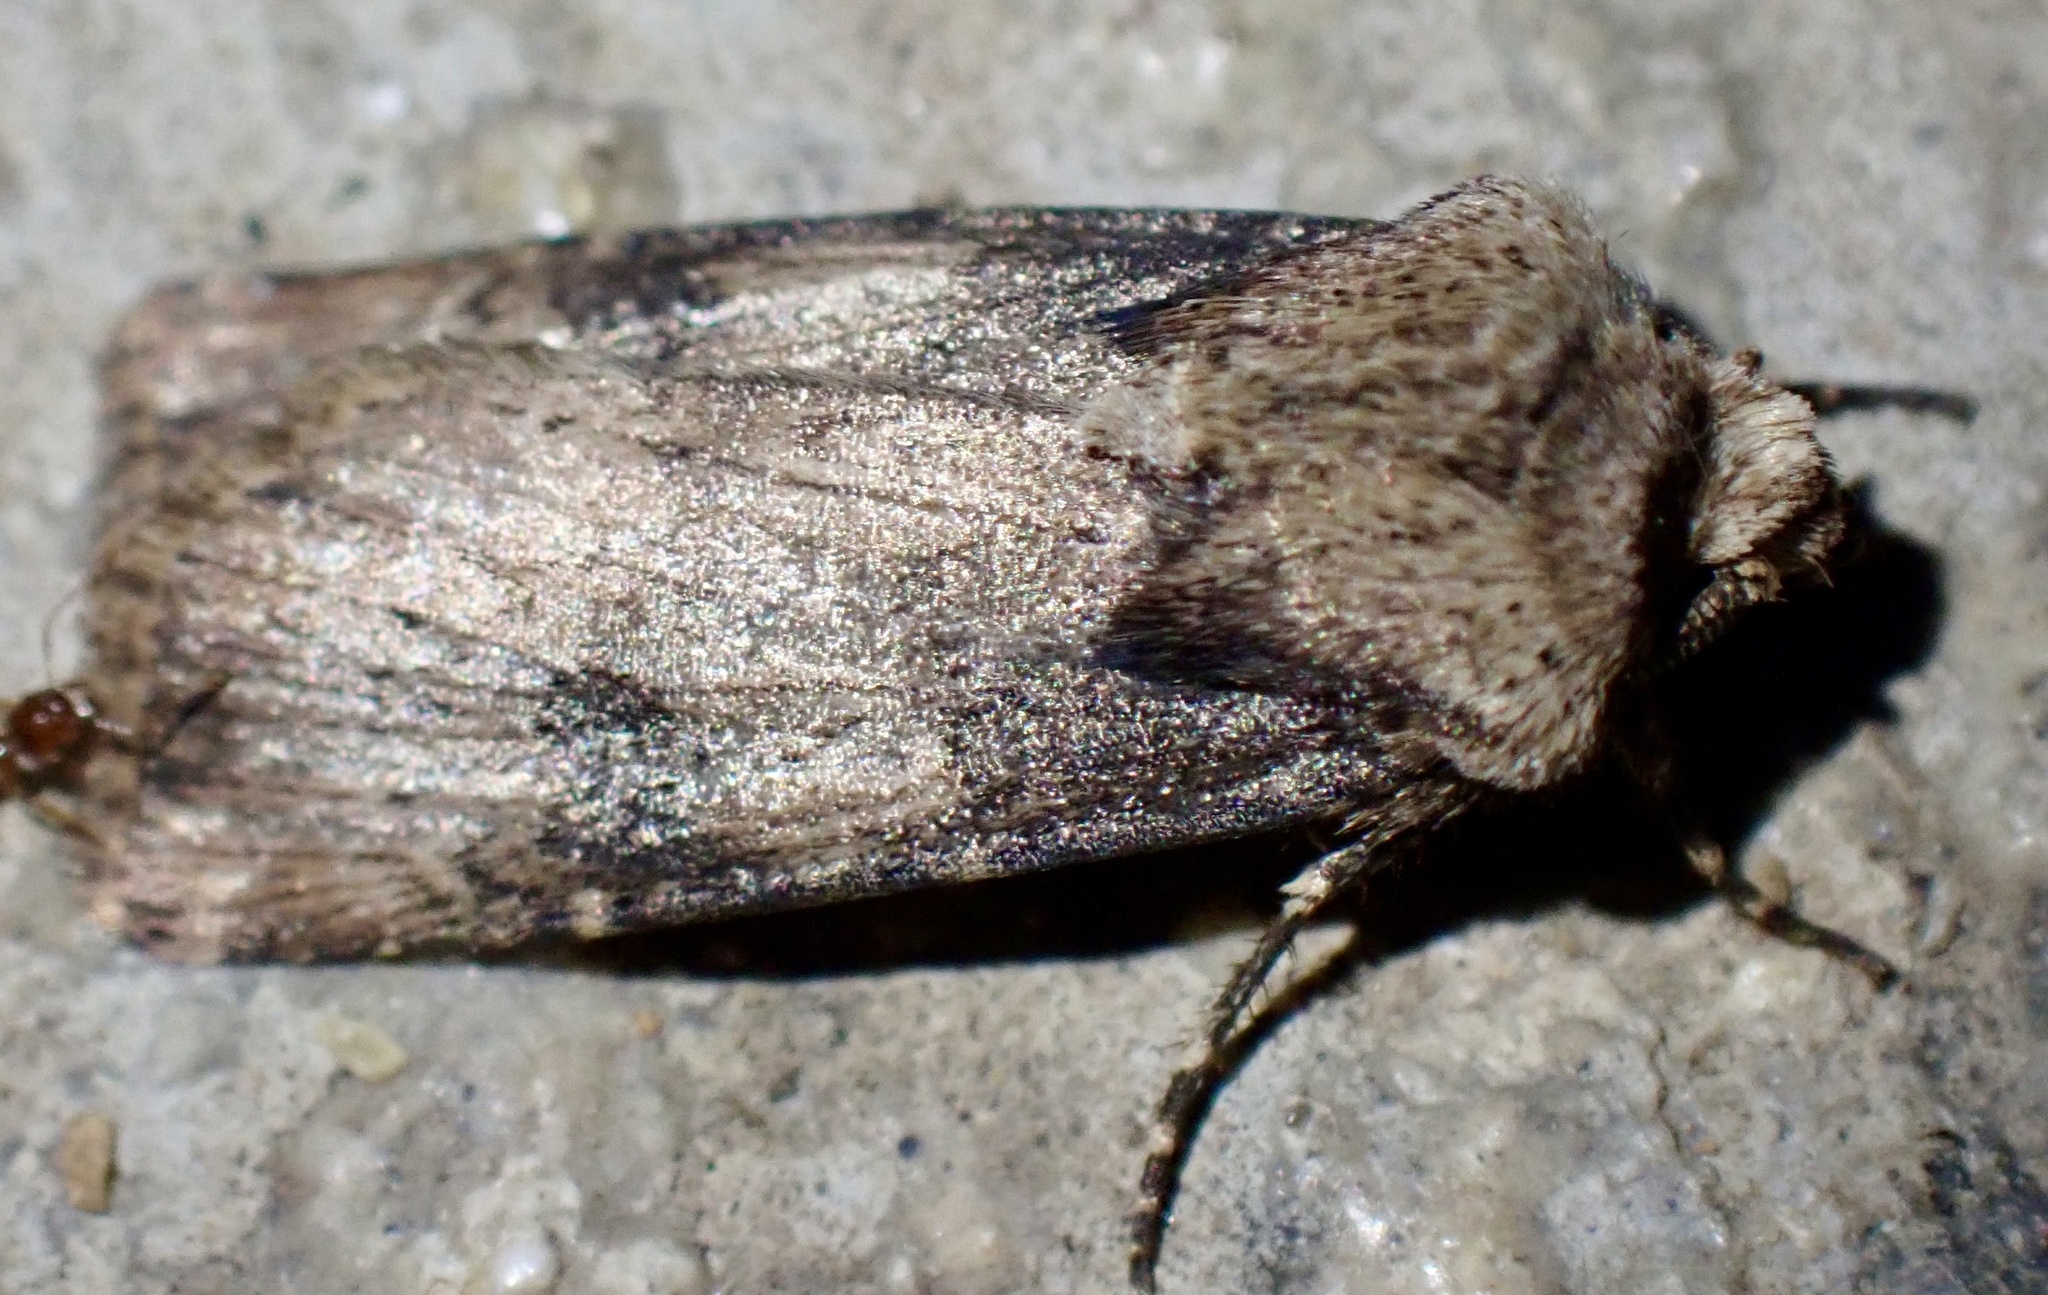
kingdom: Animalia
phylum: Arthropoda
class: Insecta
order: Lepidoptera
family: Noctuidae
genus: Agrotis
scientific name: Agrotis puta
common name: Shuttle-shaped dart
